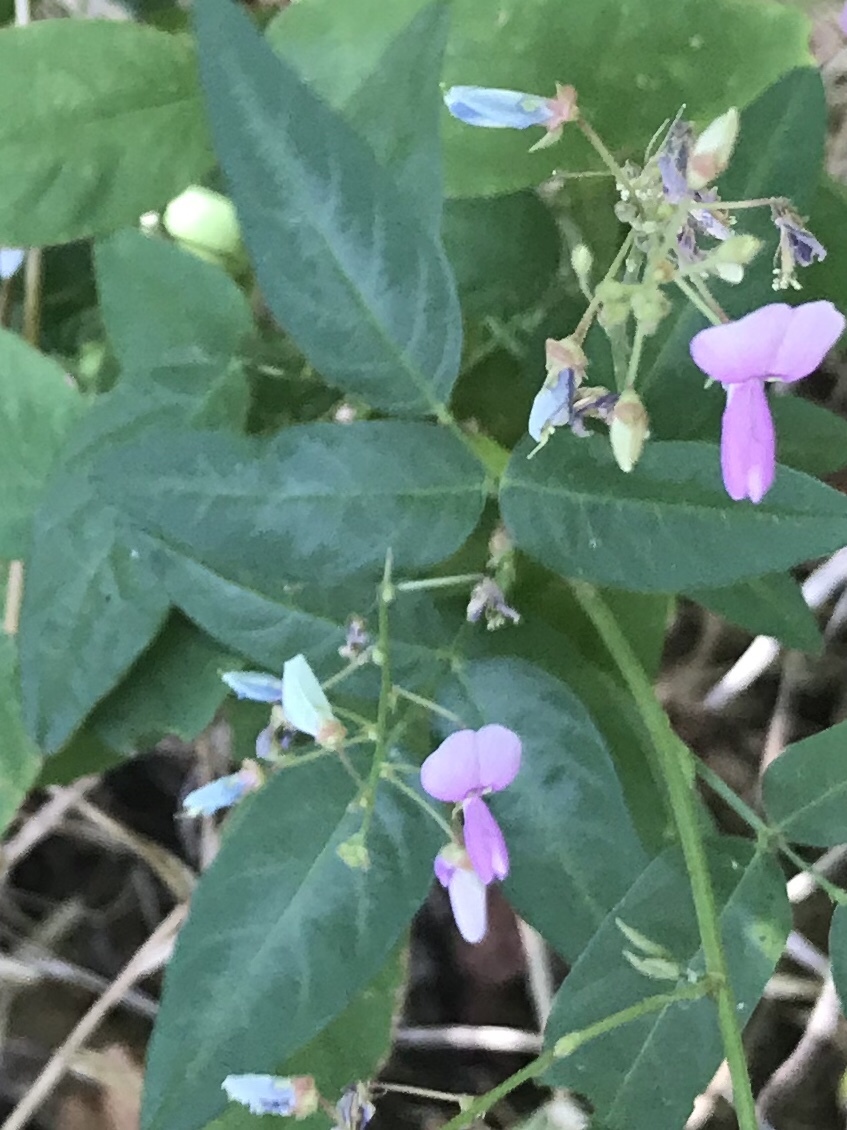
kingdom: Plantae
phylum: Tracheophyta
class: Magnoliopsida
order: Fabales
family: Fabaceae
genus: Desmodium
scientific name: Desmodium paniculatum
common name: Panicled tick-clover
